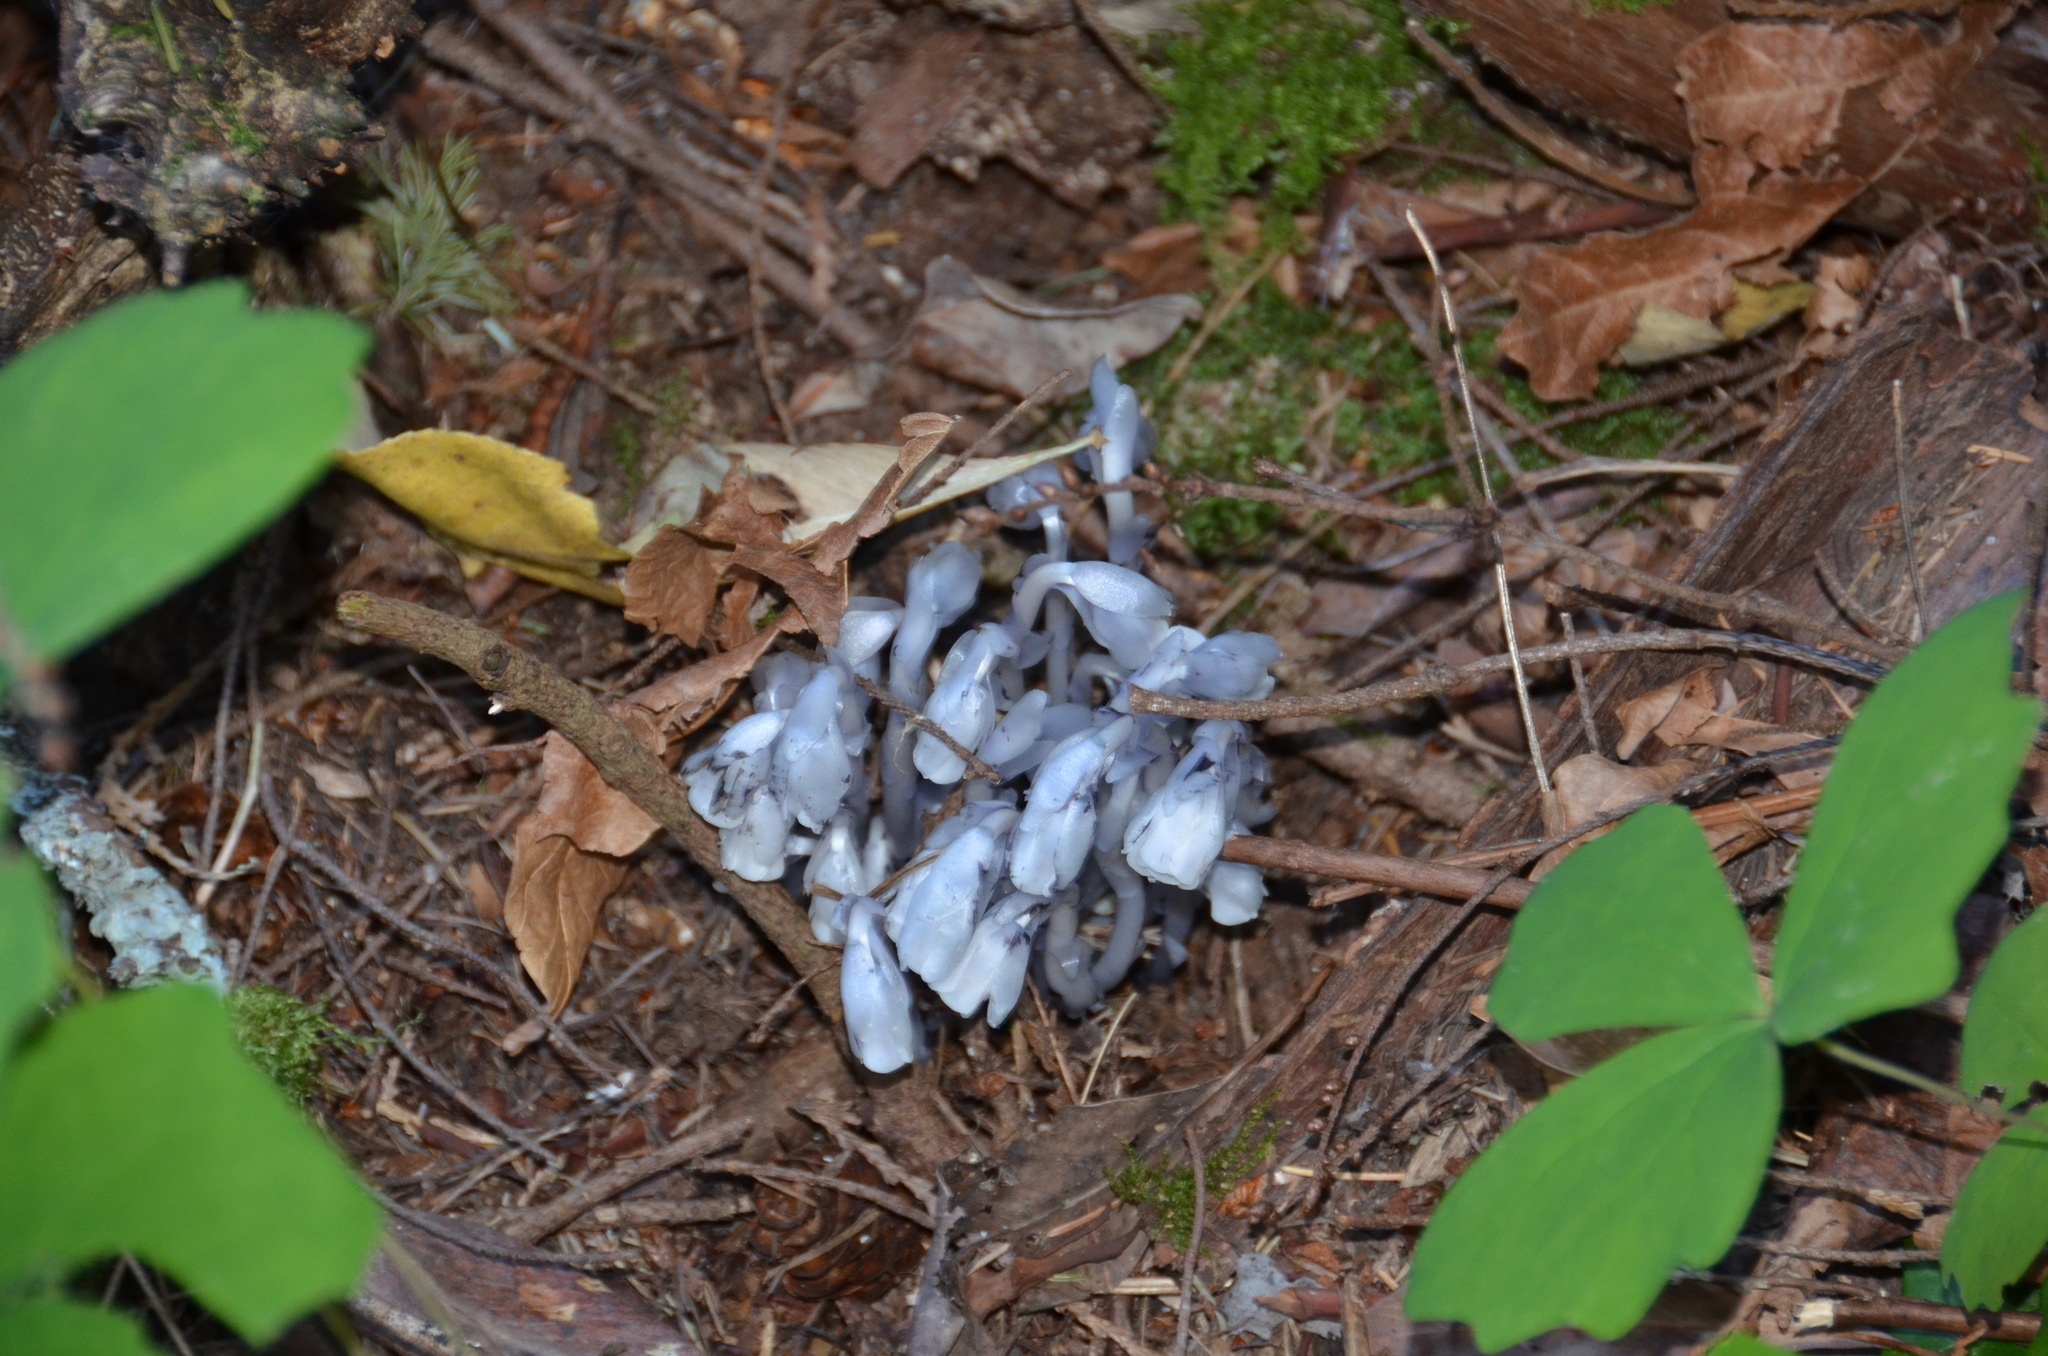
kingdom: Plantae
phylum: Tracheophyta
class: Magnoliopsida
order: Ericales
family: Ericaceae
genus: Monotropa
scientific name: Monotropa uniflora
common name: Convulsion root
